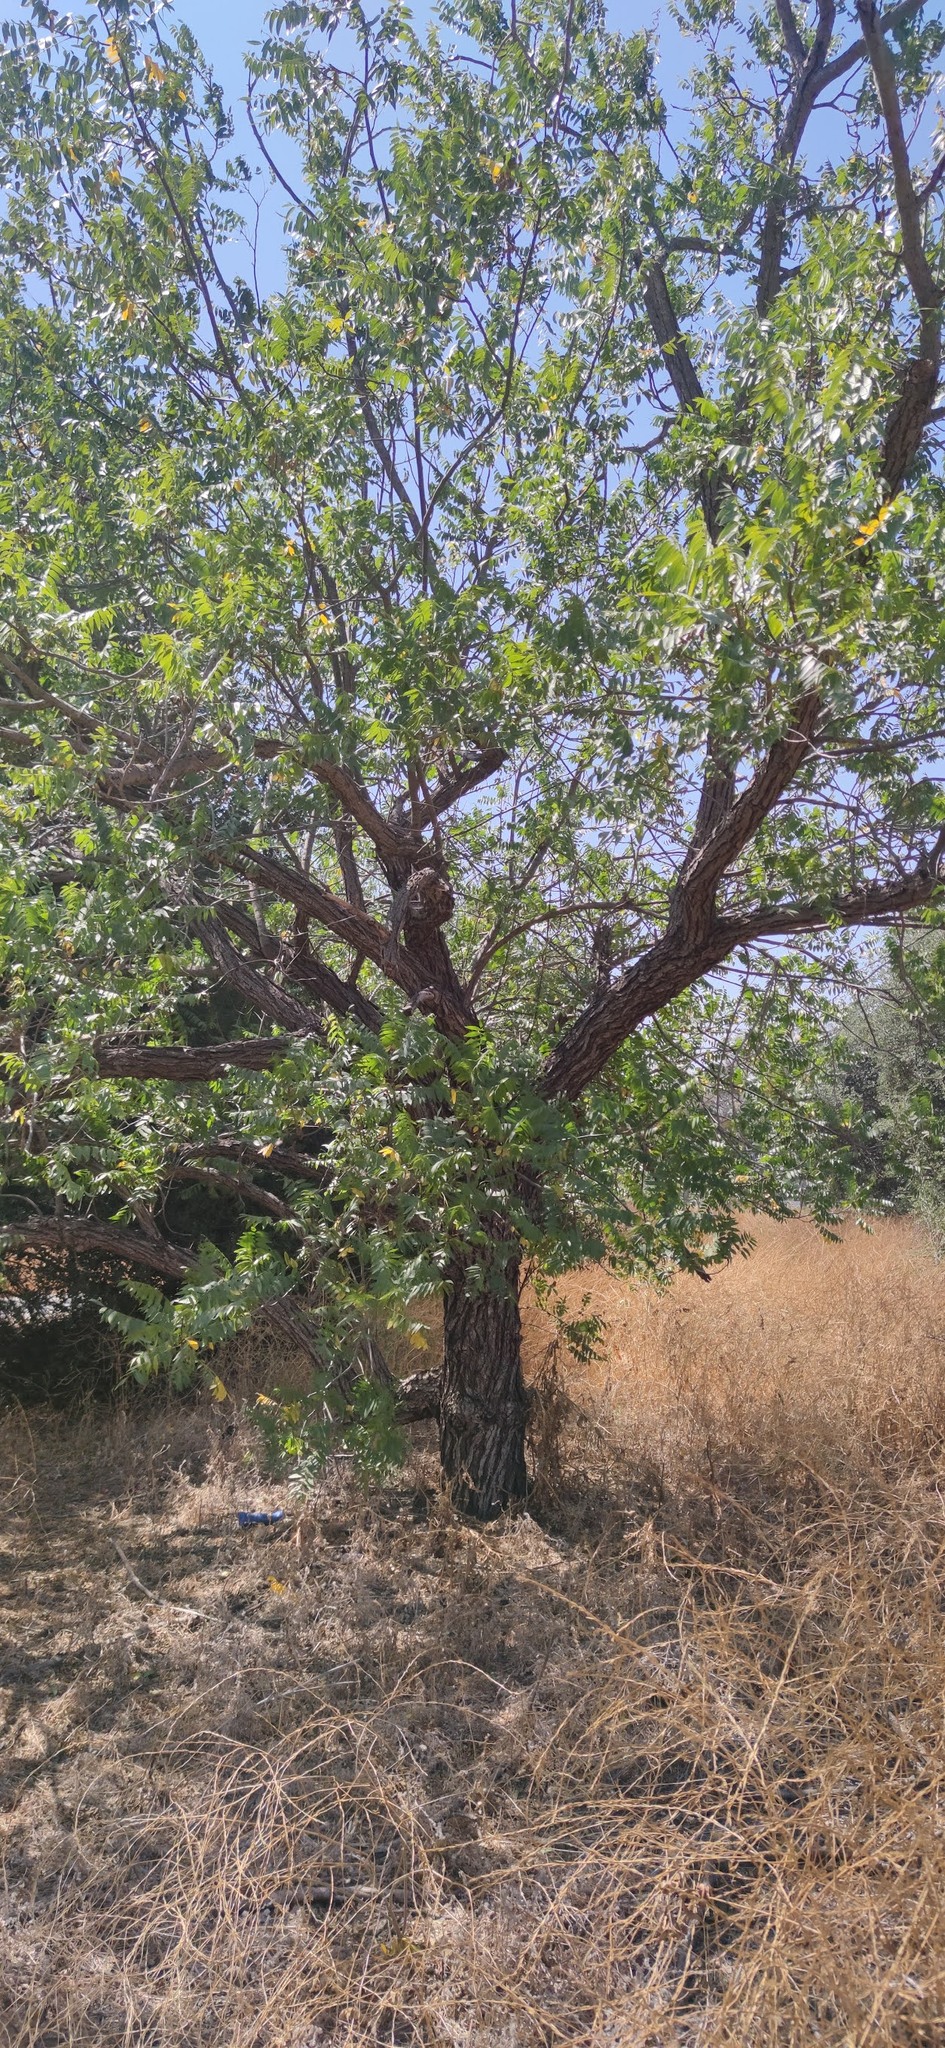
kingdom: Plantae
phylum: Tracheophyta
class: Magnoliopsida
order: Fagales
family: Juglandaceae
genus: Juglans
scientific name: Juglans californica
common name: Southern california black walnut
